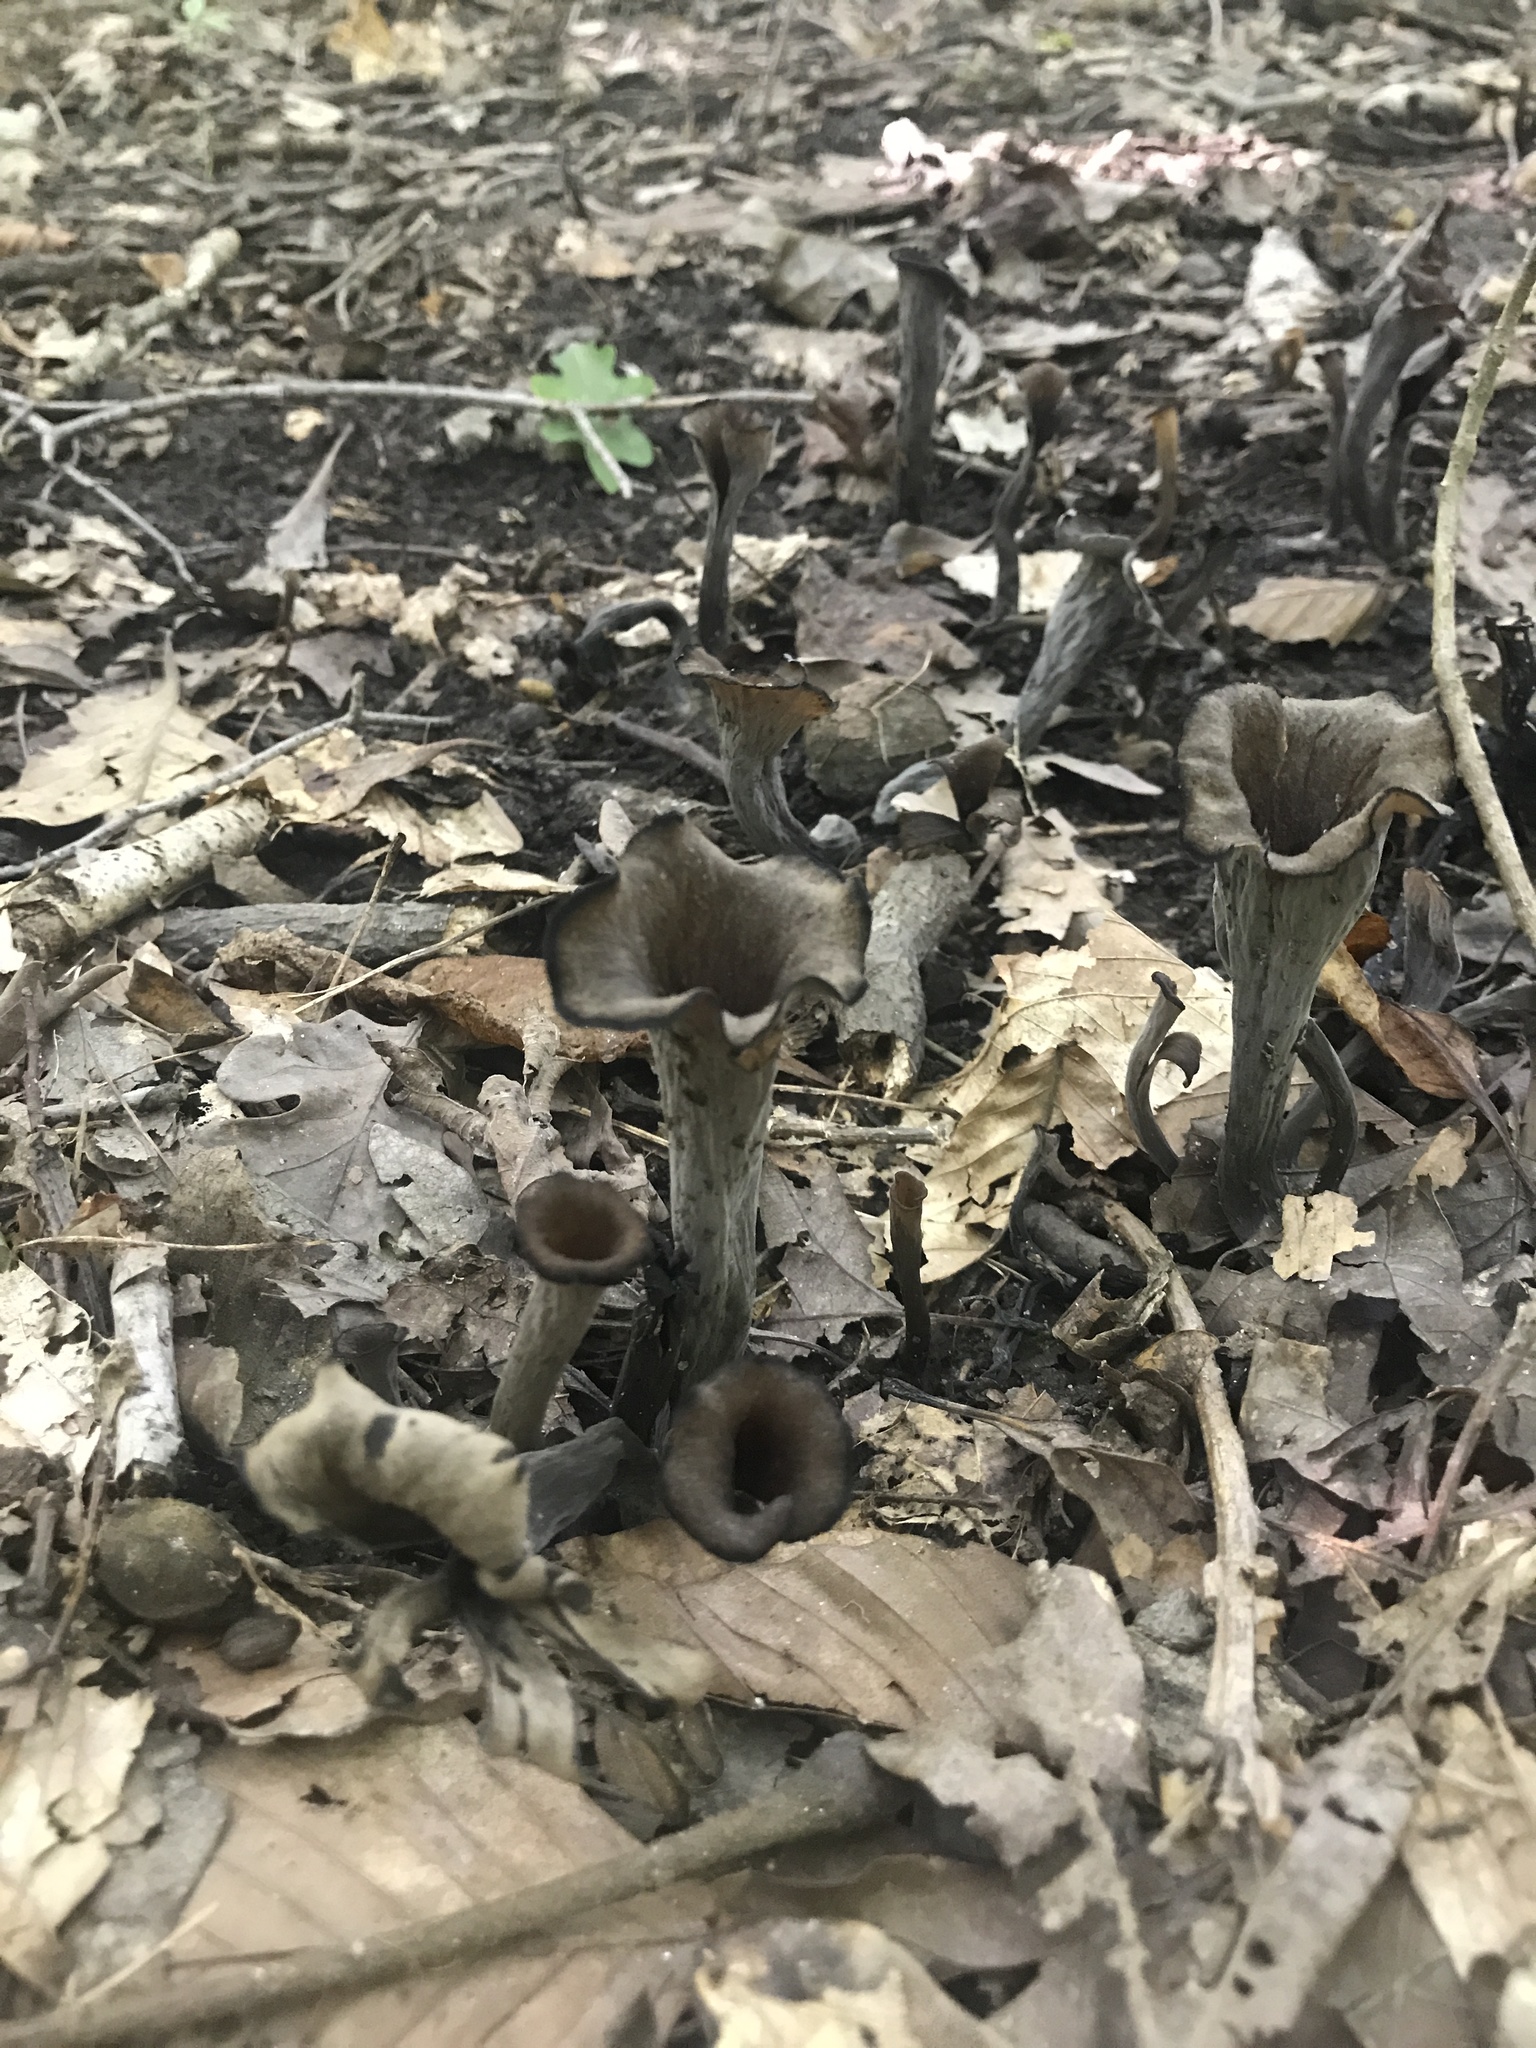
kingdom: Fungi
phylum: Basidiomycota
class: Agaricomycetes
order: Cantharellales
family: Hydnaceae
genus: Craterellus
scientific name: Craterellus cornucopioides
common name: Horn of plenty
